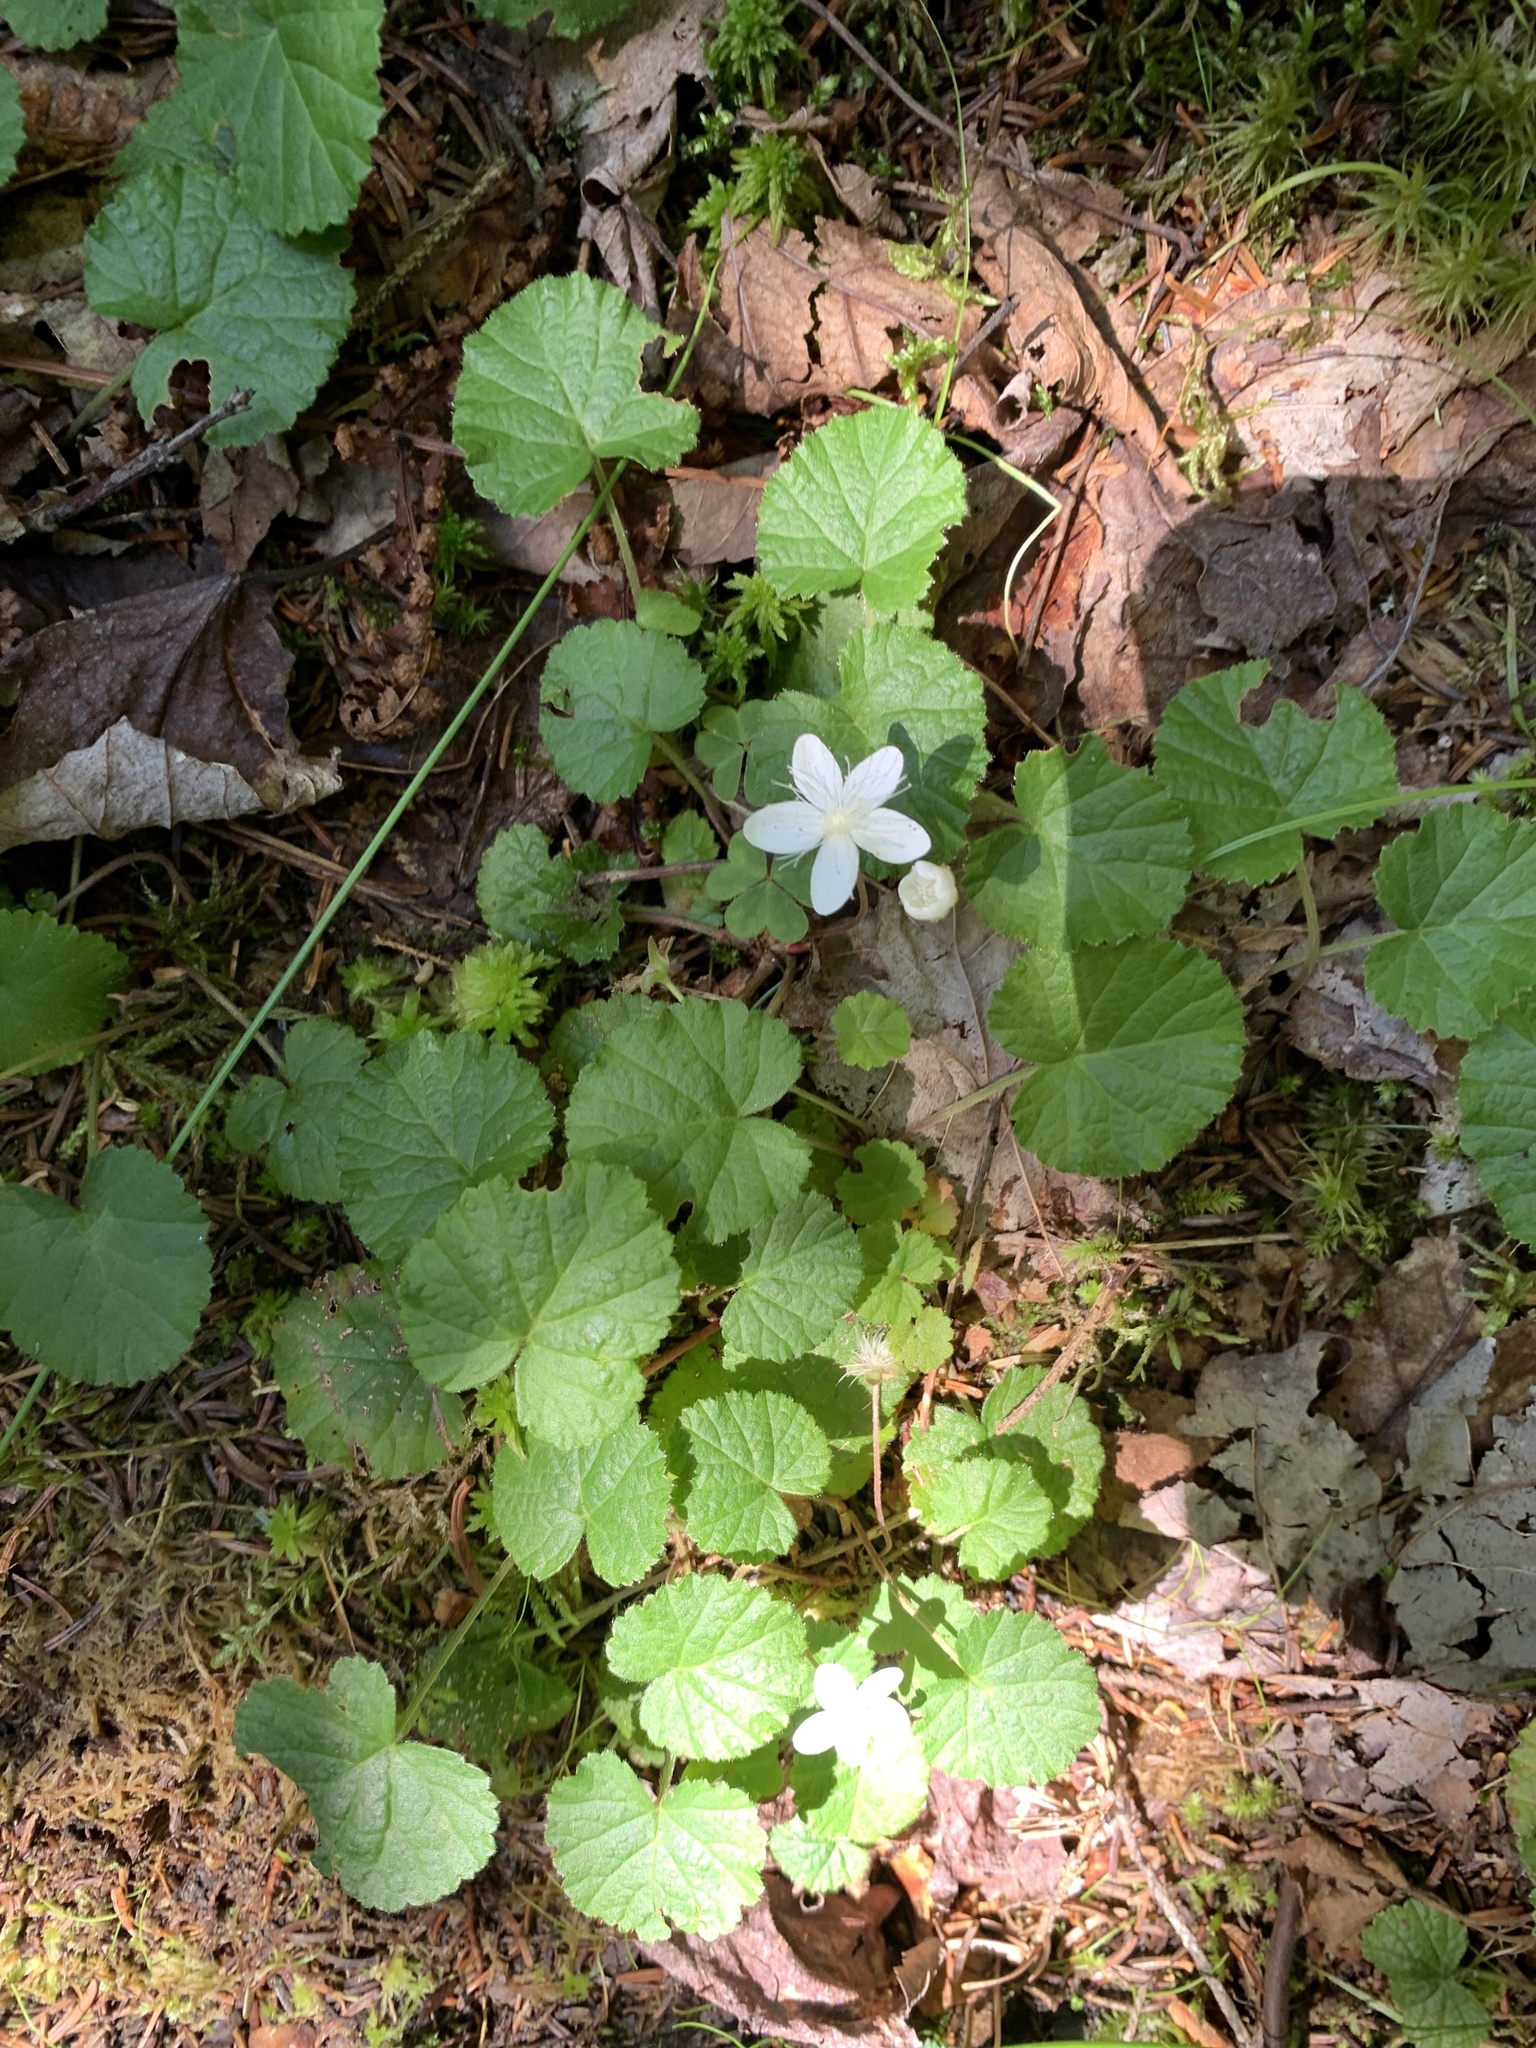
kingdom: Plantae
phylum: Tracheophyta
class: Magnoliopsida
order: Rosales
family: Rosaceae
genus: Dalibarda
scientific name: Dalibarda repens
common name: Dewdrop
